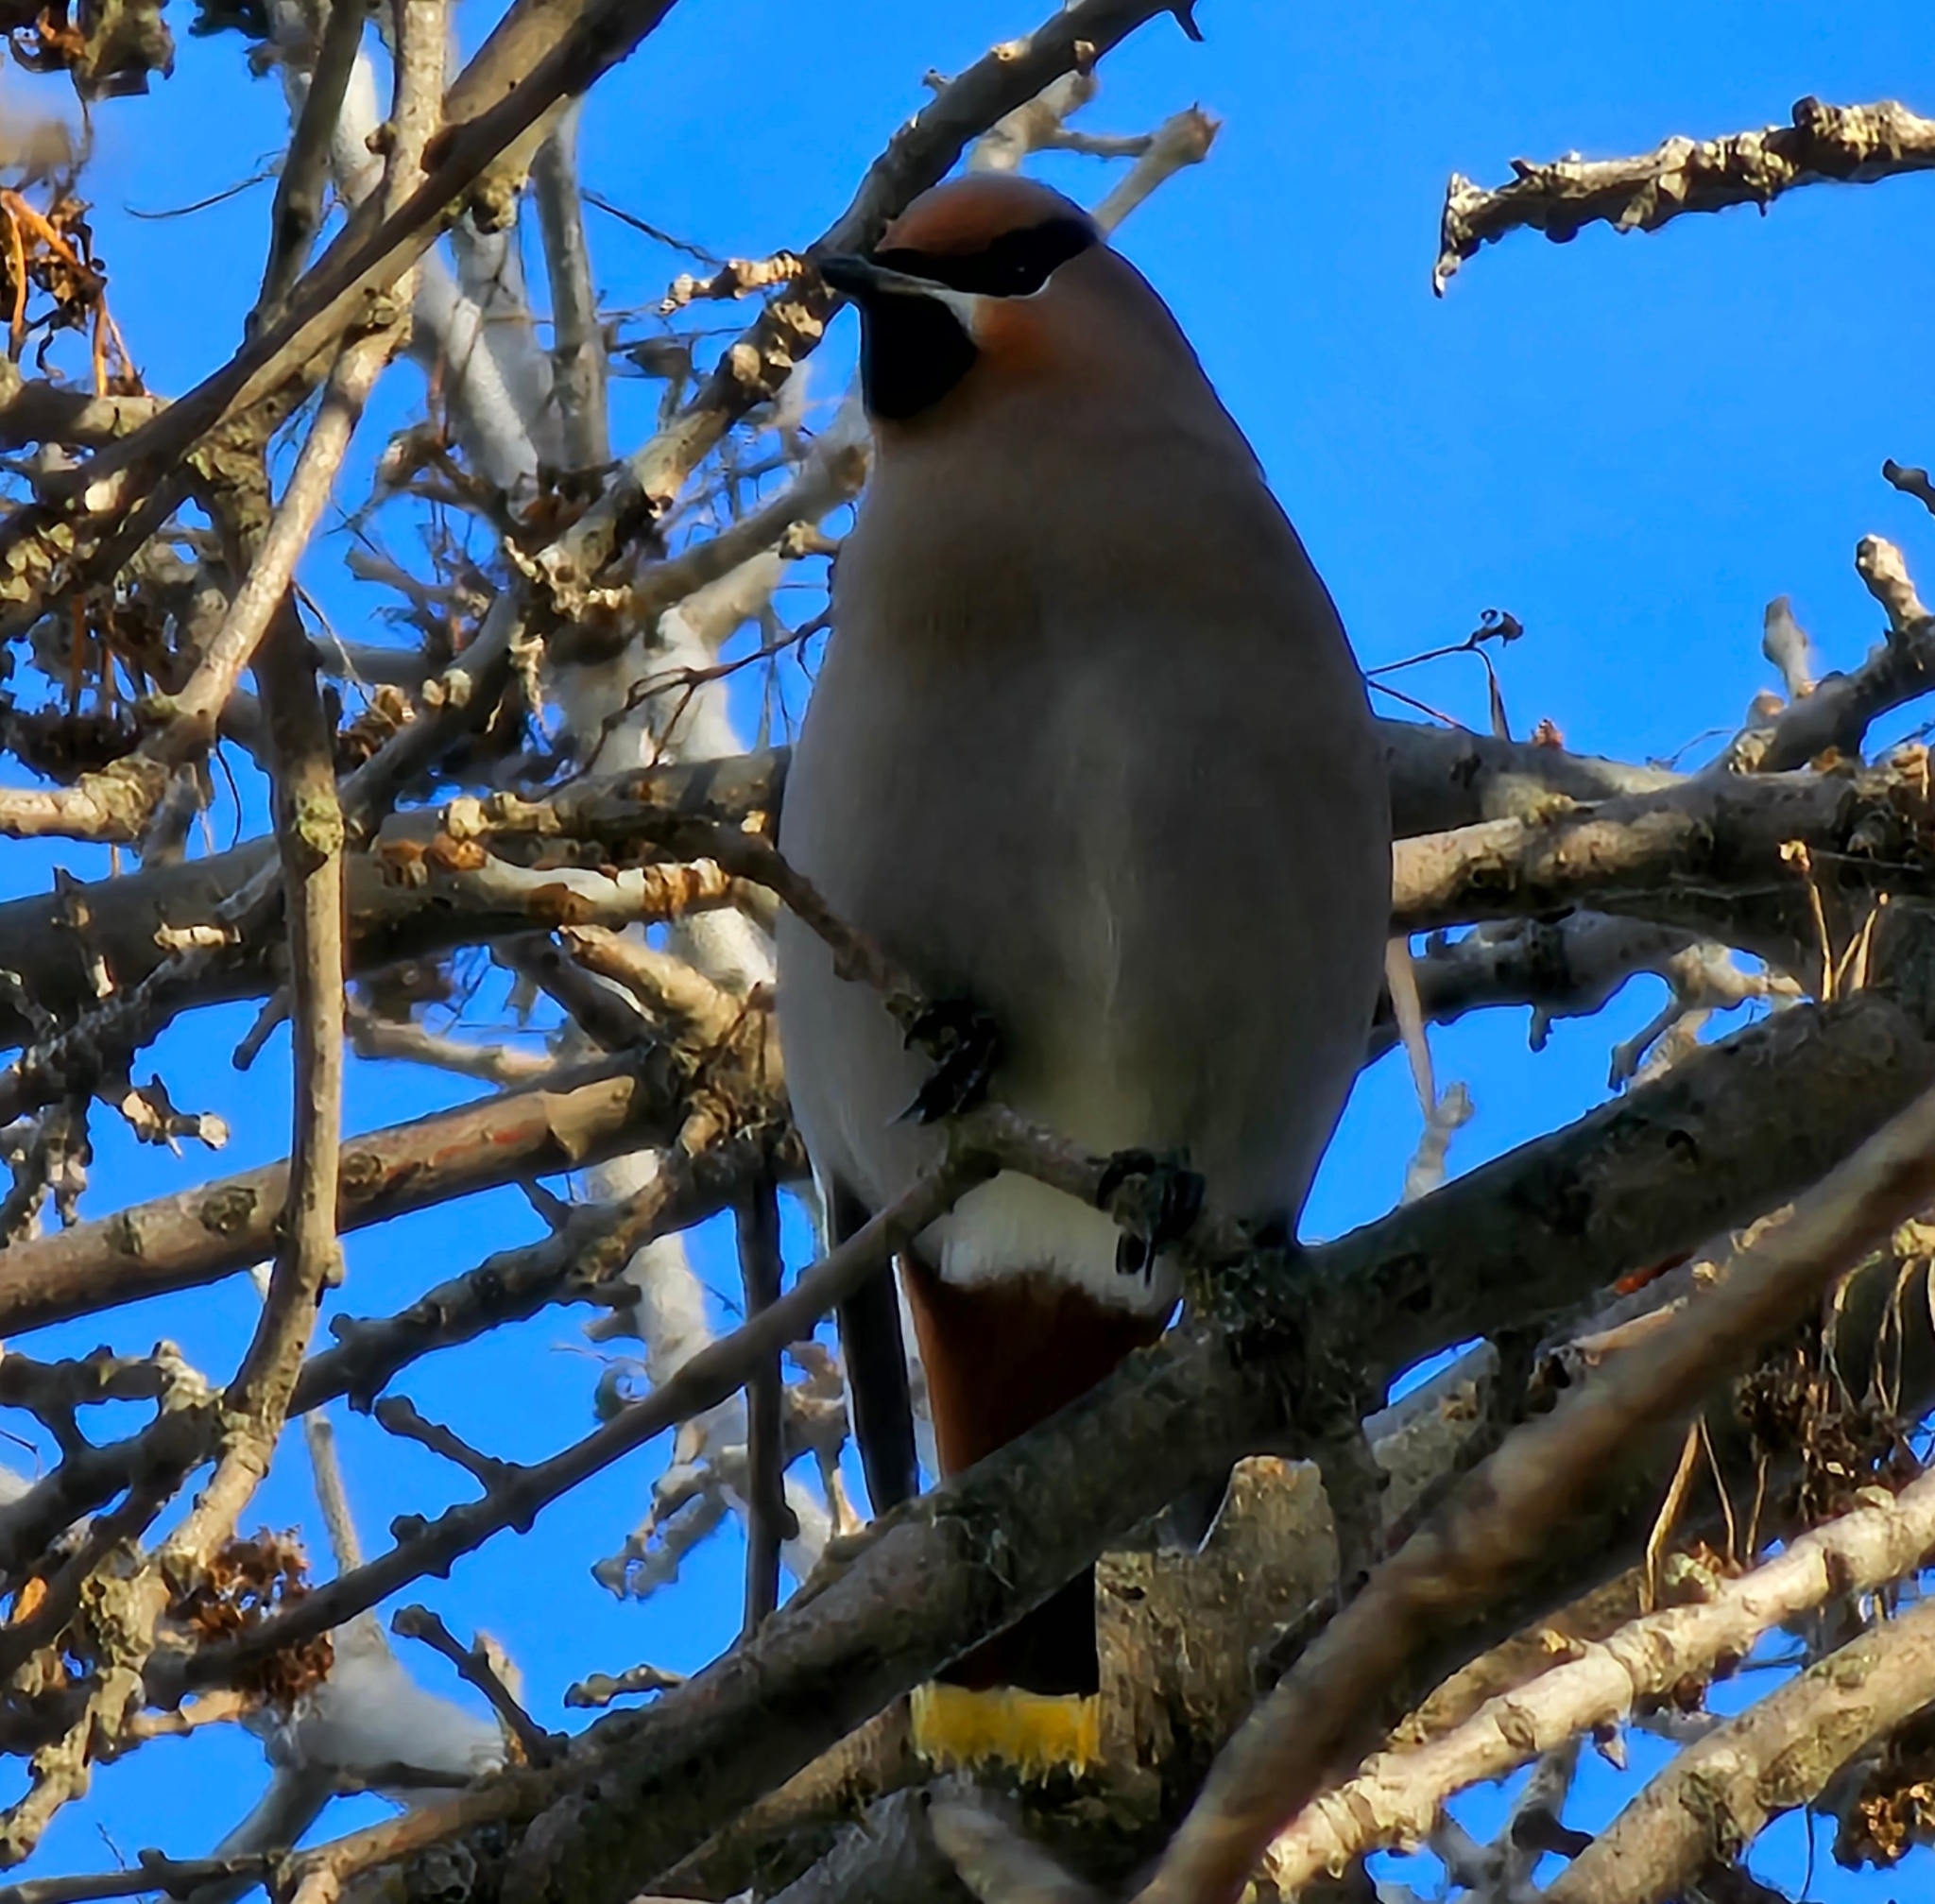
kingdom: Animalia
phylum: Chordata
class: Aves
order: Passeriformes
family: Bombycillidae
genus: Bombycilla
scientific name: Bombycilla garrulus
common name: Bohemian waxwing
